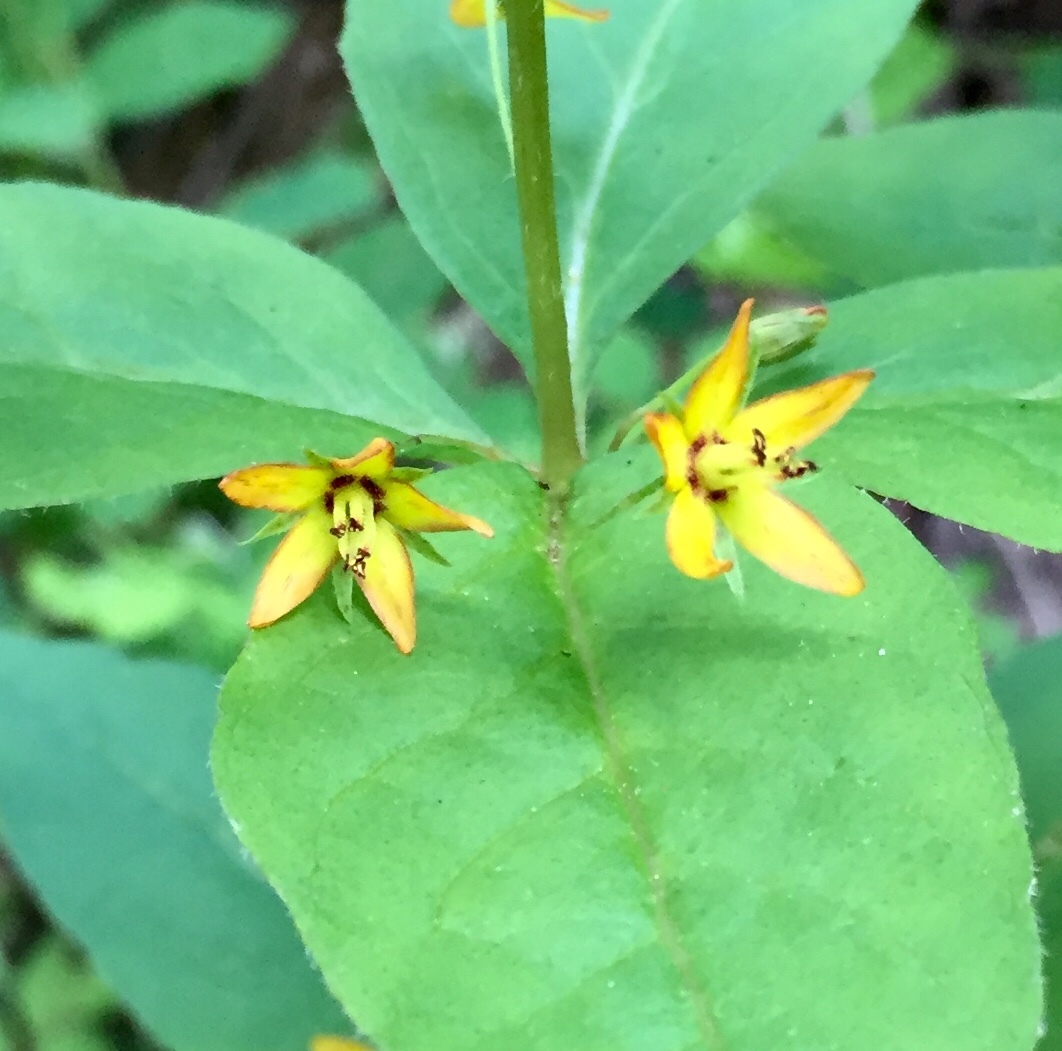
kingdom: Plantae
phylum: Tracheophyta
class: Magnoliopsida
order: Ericales
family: Primulaceae
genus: Lysimachia
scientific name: Lysimachia quadrifolia
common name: Whorled loosestrife
